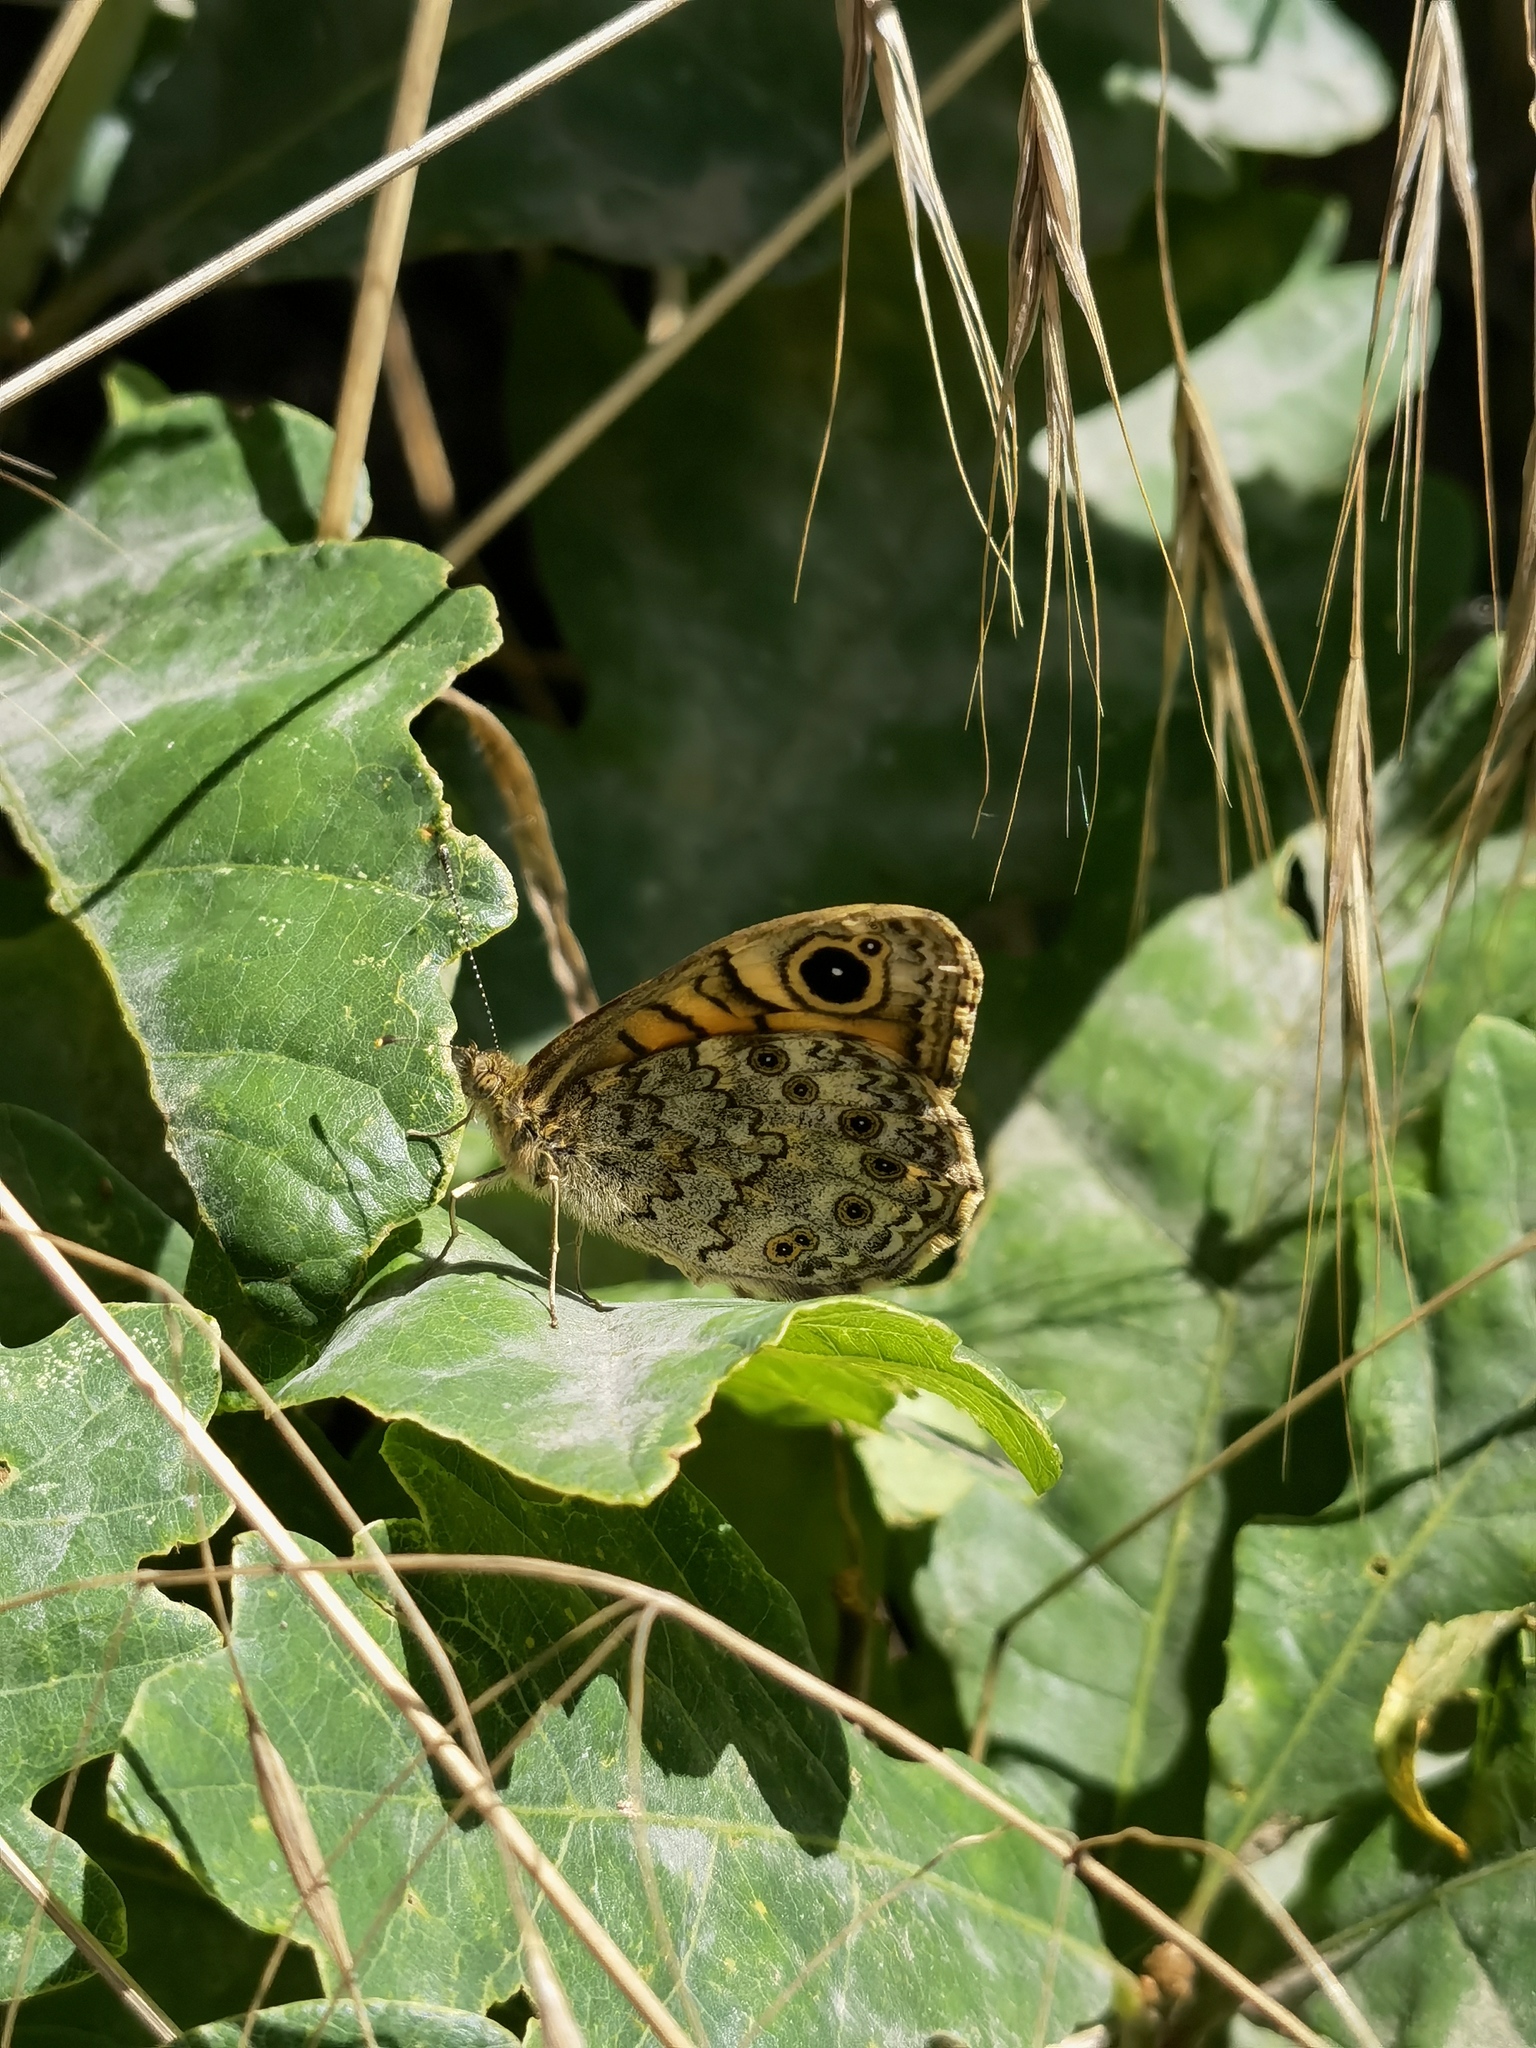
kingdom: Animalia
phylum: Arthropoda
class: Insecta
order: Lepidoptera
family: Nymphalidae
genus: Pararge
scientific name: Pararge Lasiommata megera
